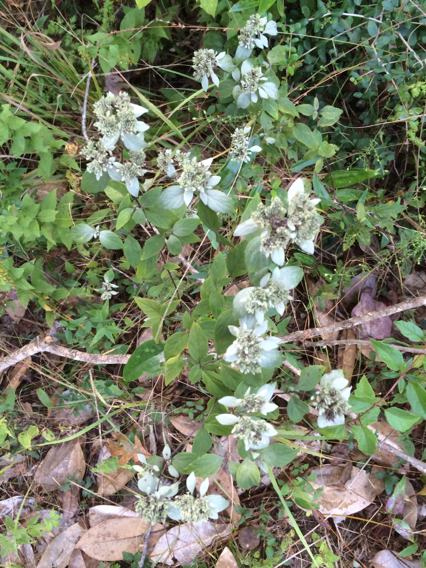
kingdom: Plantae
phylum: Tracheophyta
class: Magnoliopsida
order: Lamiales
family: Lamiaceae
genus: Pycnanthemum
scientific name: Pycnanthemum albescens
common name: White-leaf mountain-mint
